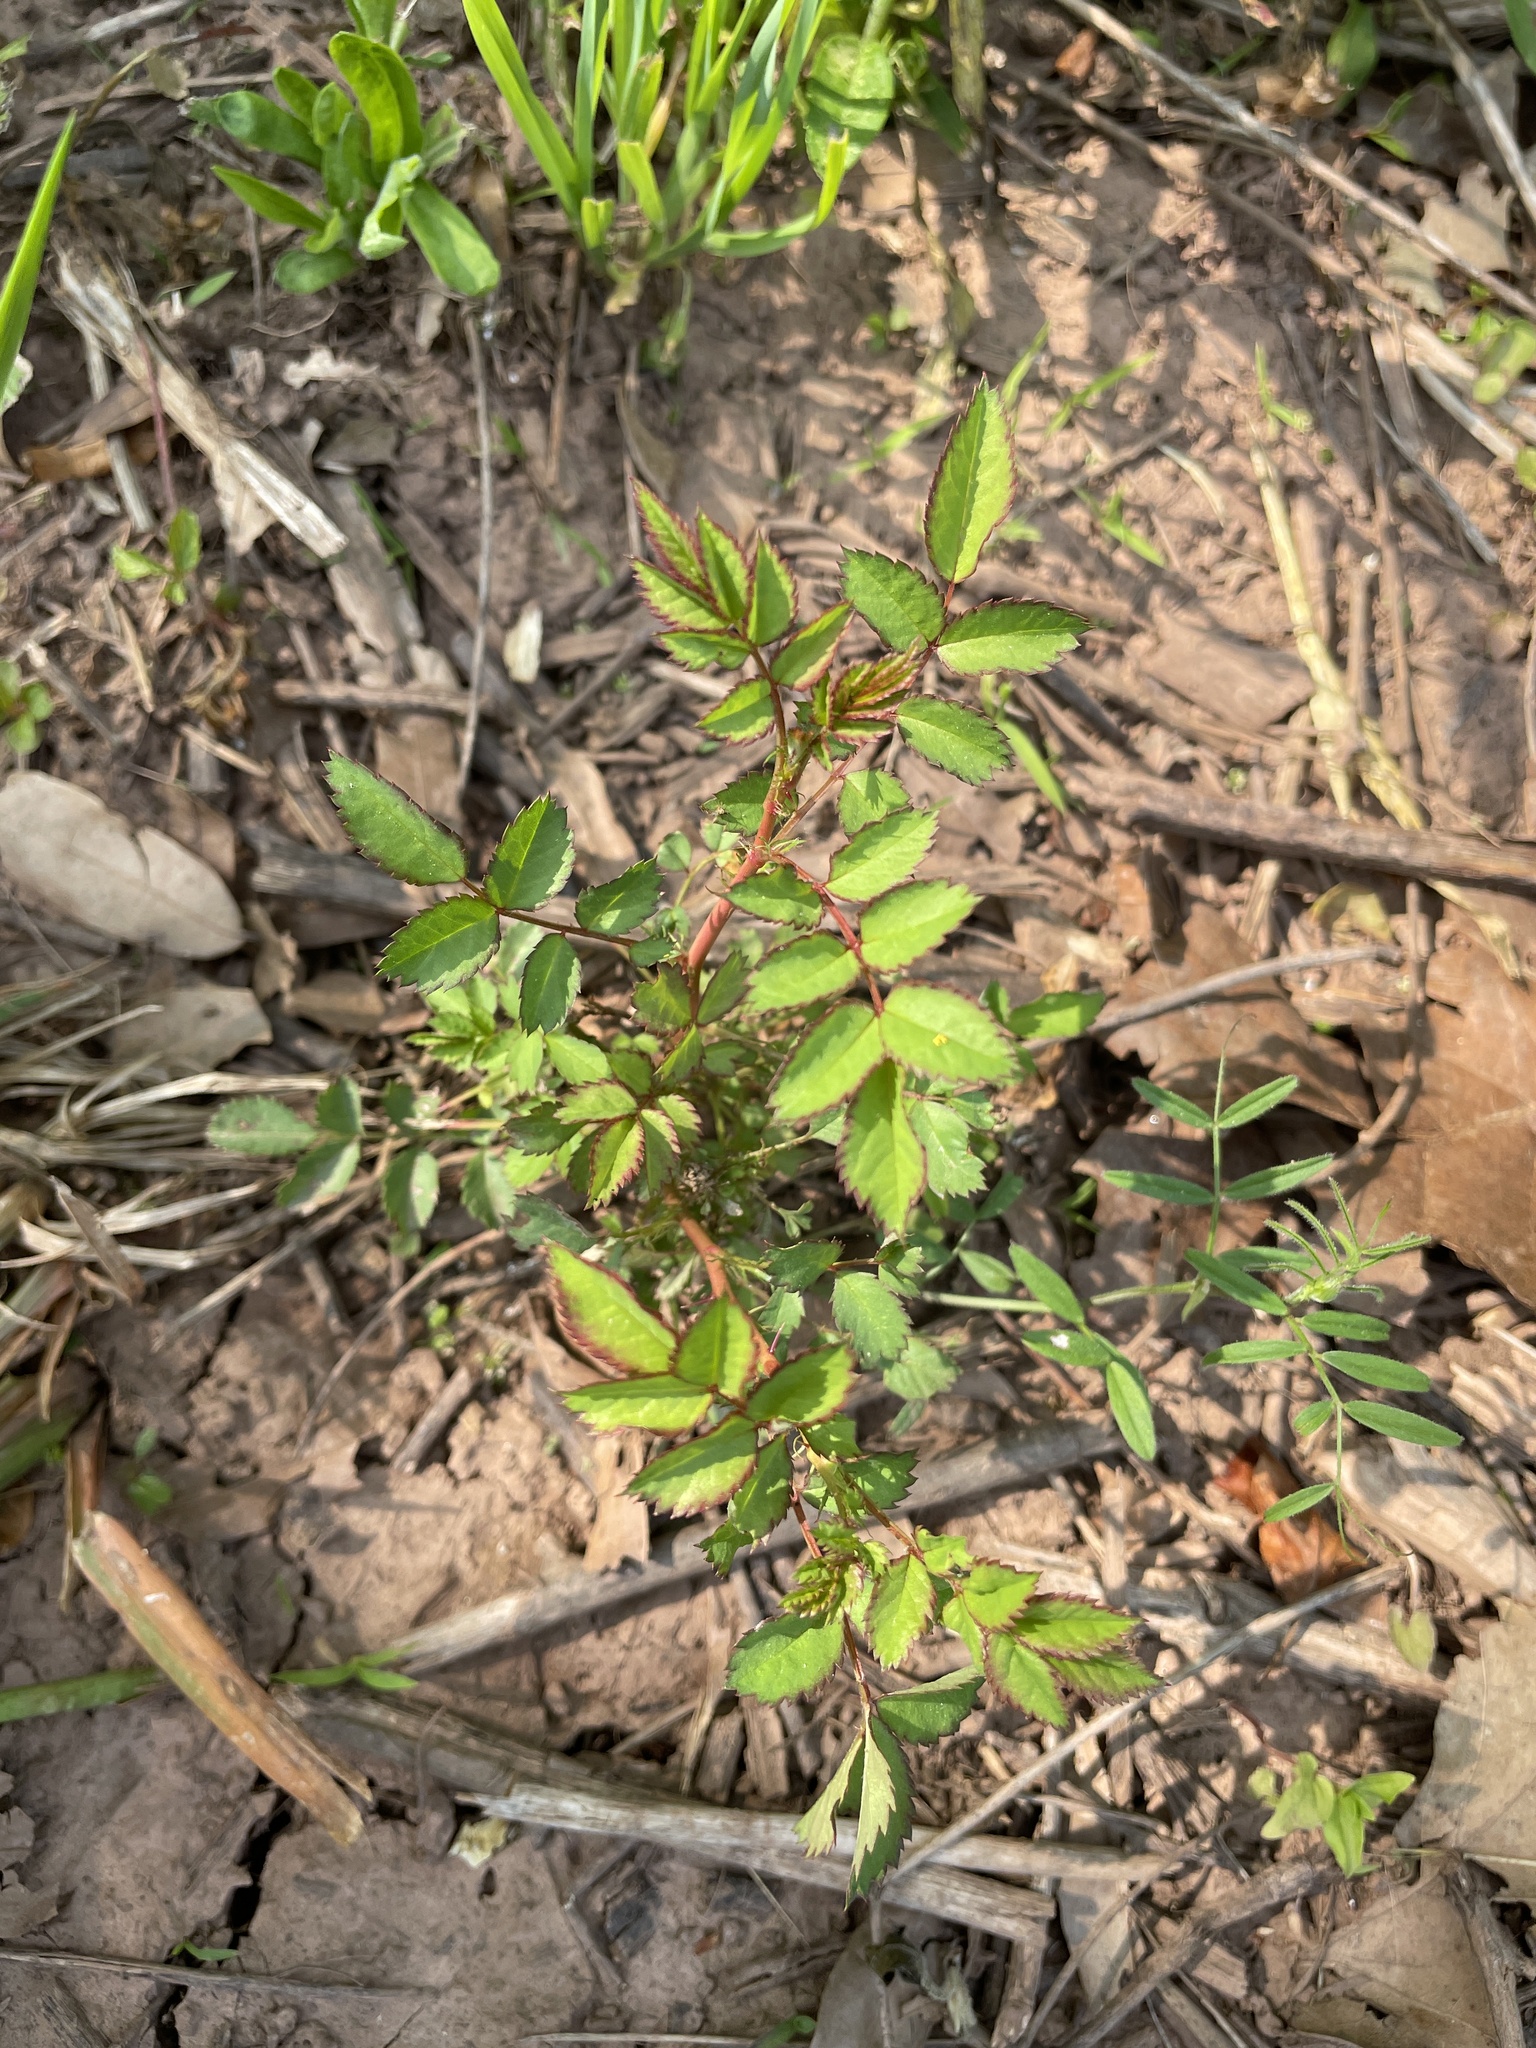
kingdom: Plantae
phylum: Tracheophyta
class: Magnoliopsida
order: Rosales
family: Rosaceae
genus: Rosa
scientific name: Rosa multiflora
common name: Multiflora rose
